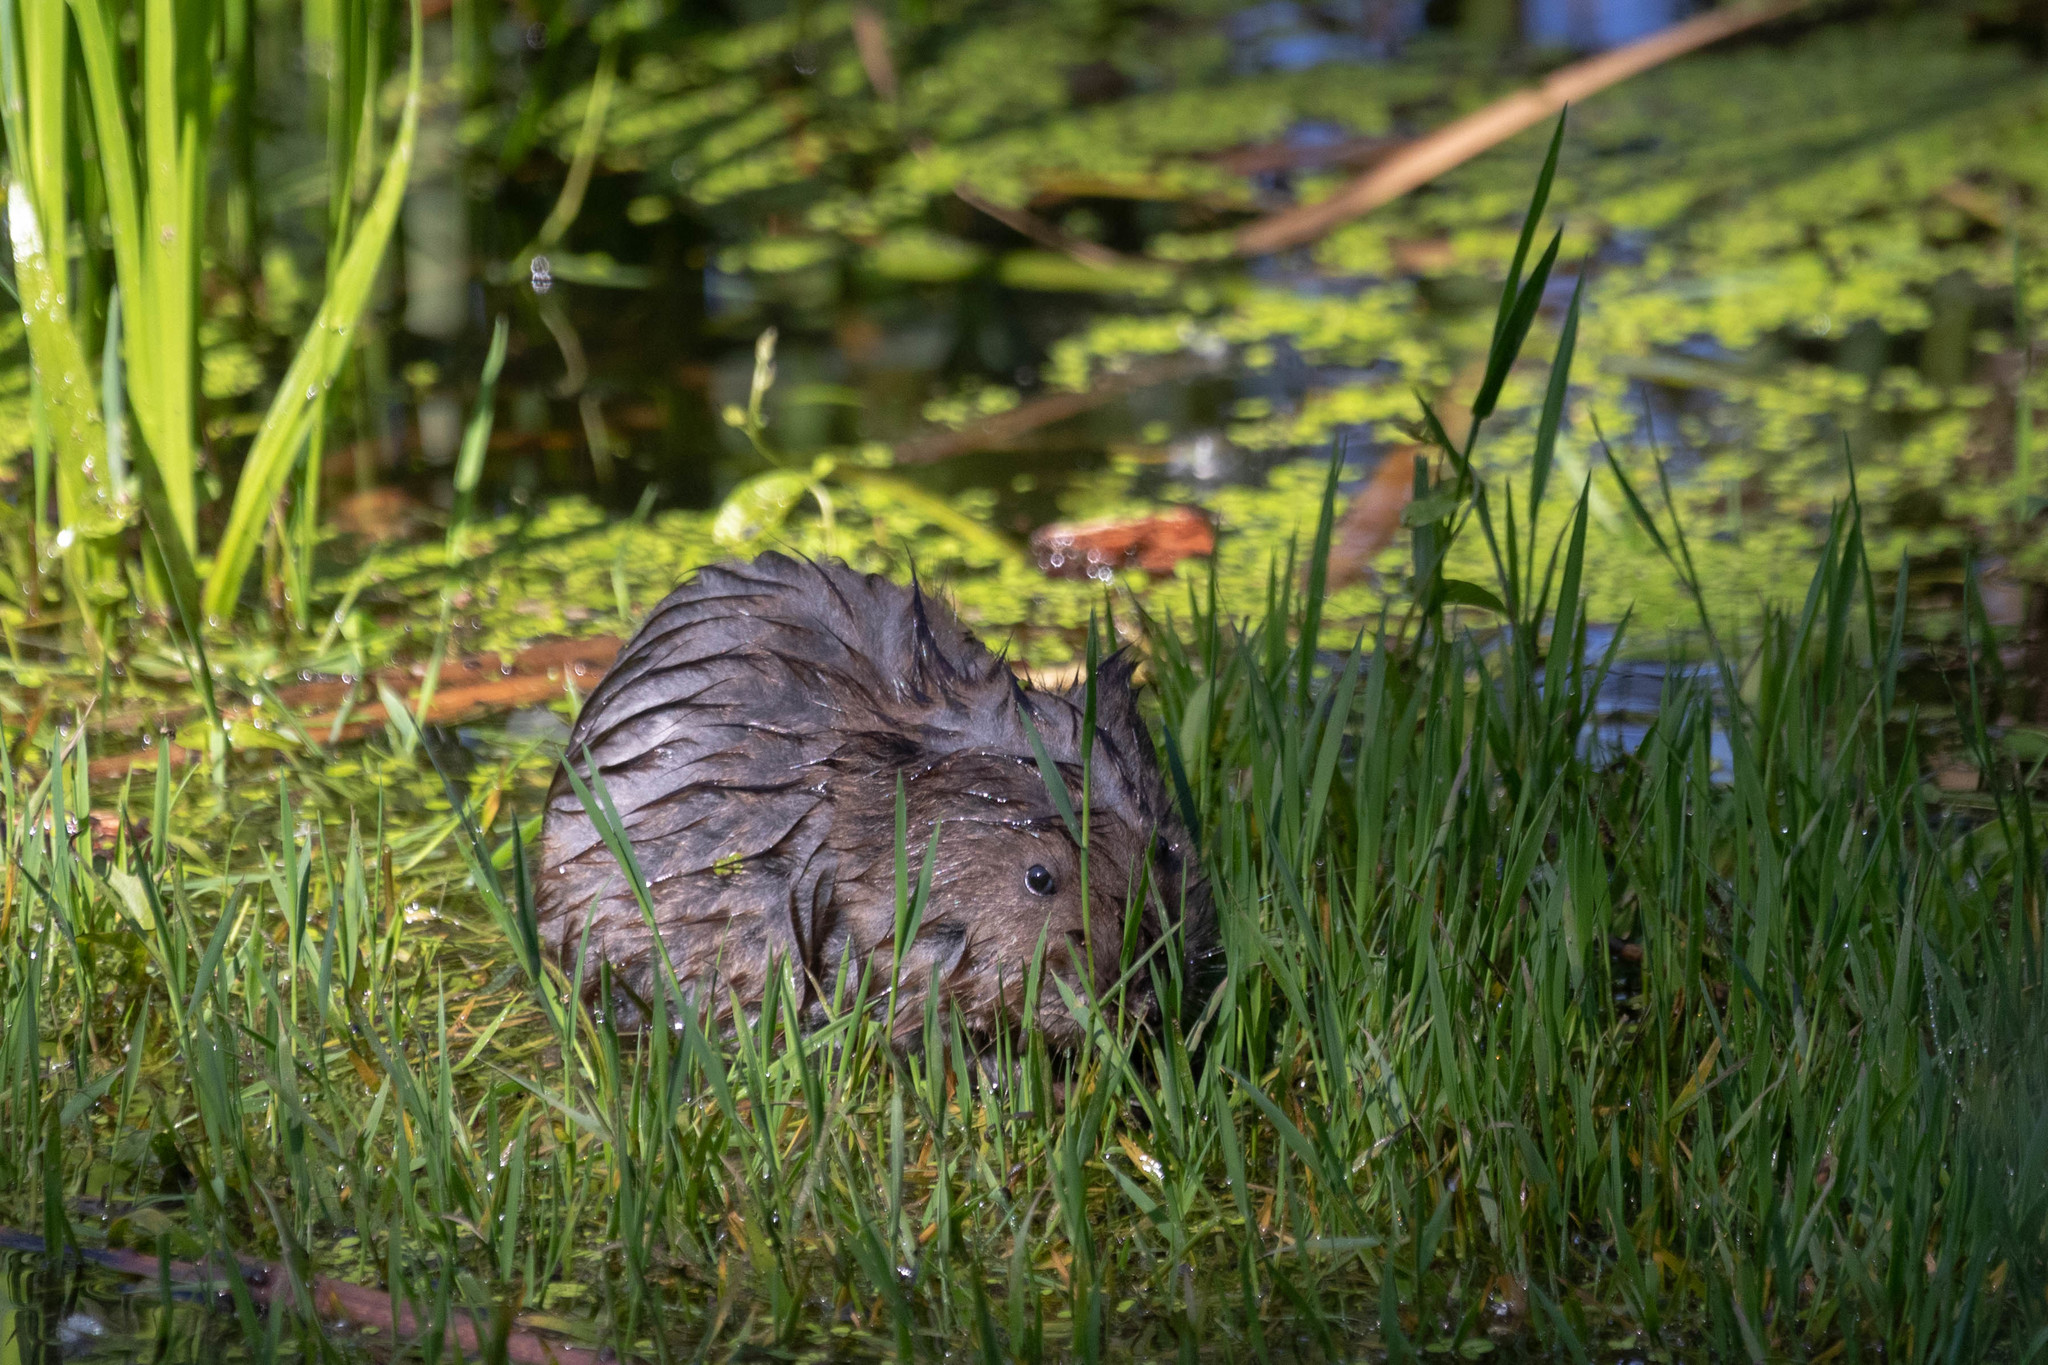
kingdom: Animalia
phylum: Chordata
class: Mammalia
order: Rodentia
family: Cricetidae
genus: Ondatra
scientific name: Ondatra zibethicus
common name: Muskrat
